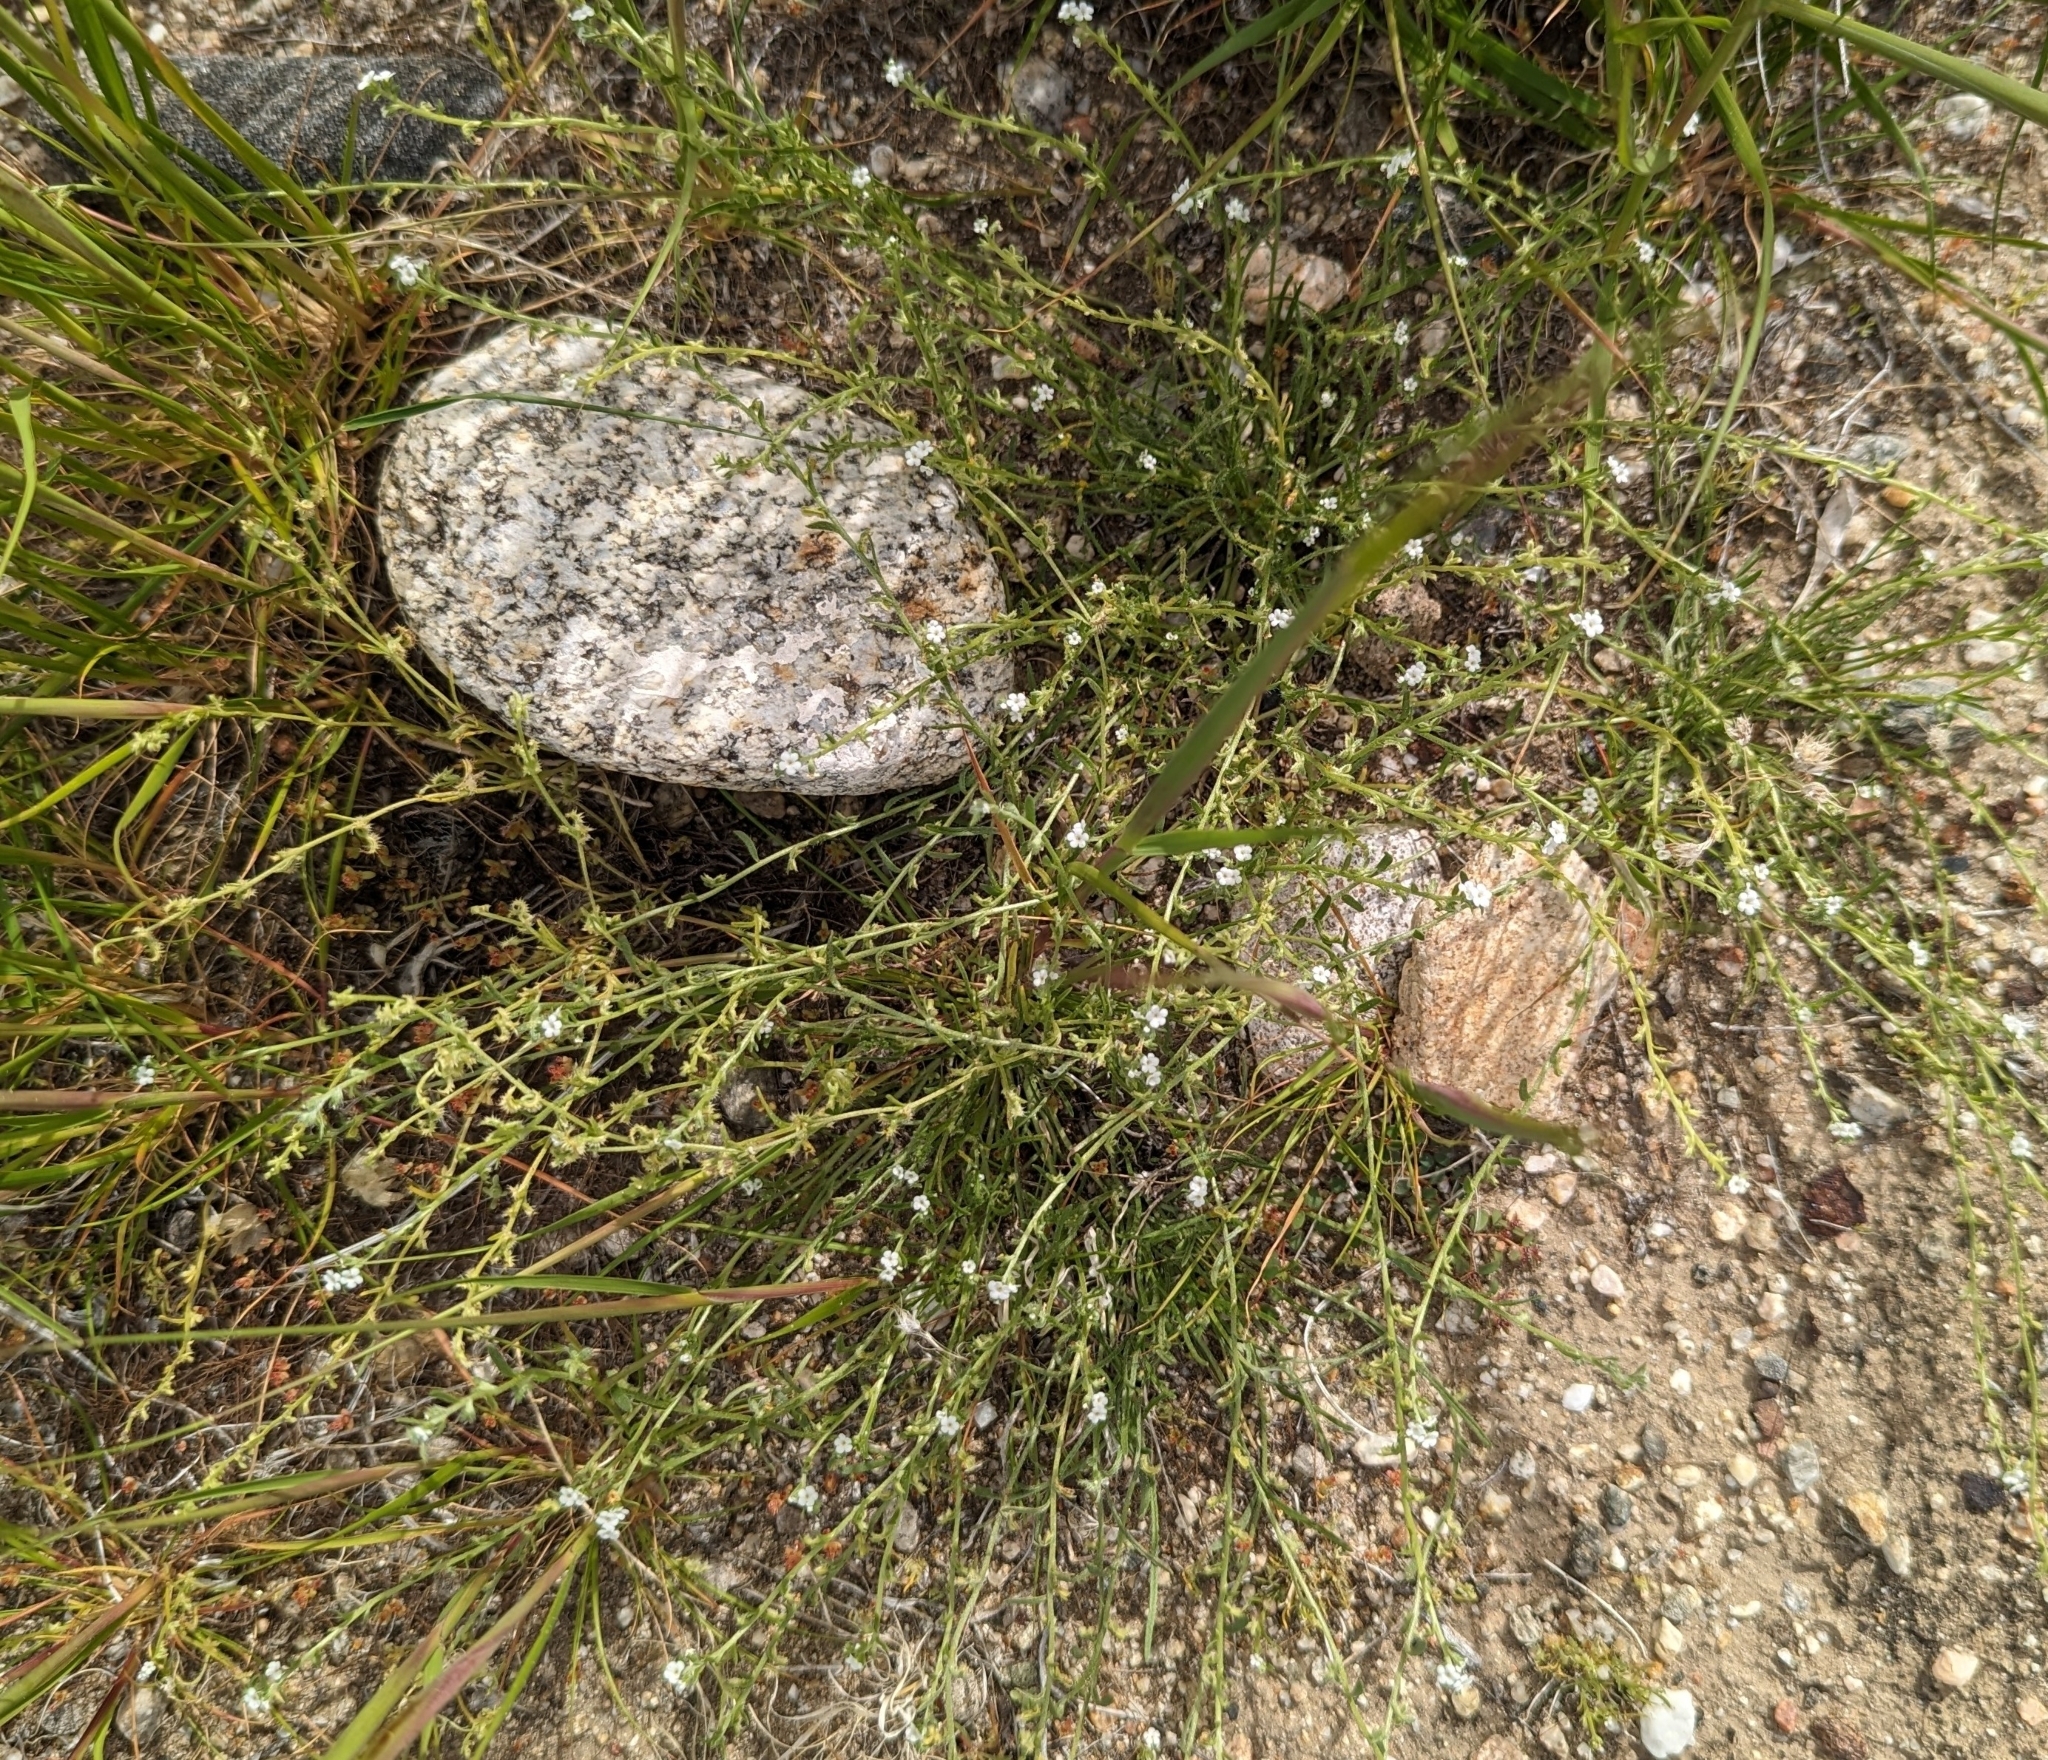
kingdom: Plantae
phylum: Tracheophyta
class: Magnoliopsida
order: Boraginales
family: Boraginaceae
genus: Pectocarya
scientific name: Pectocarya recurvata
